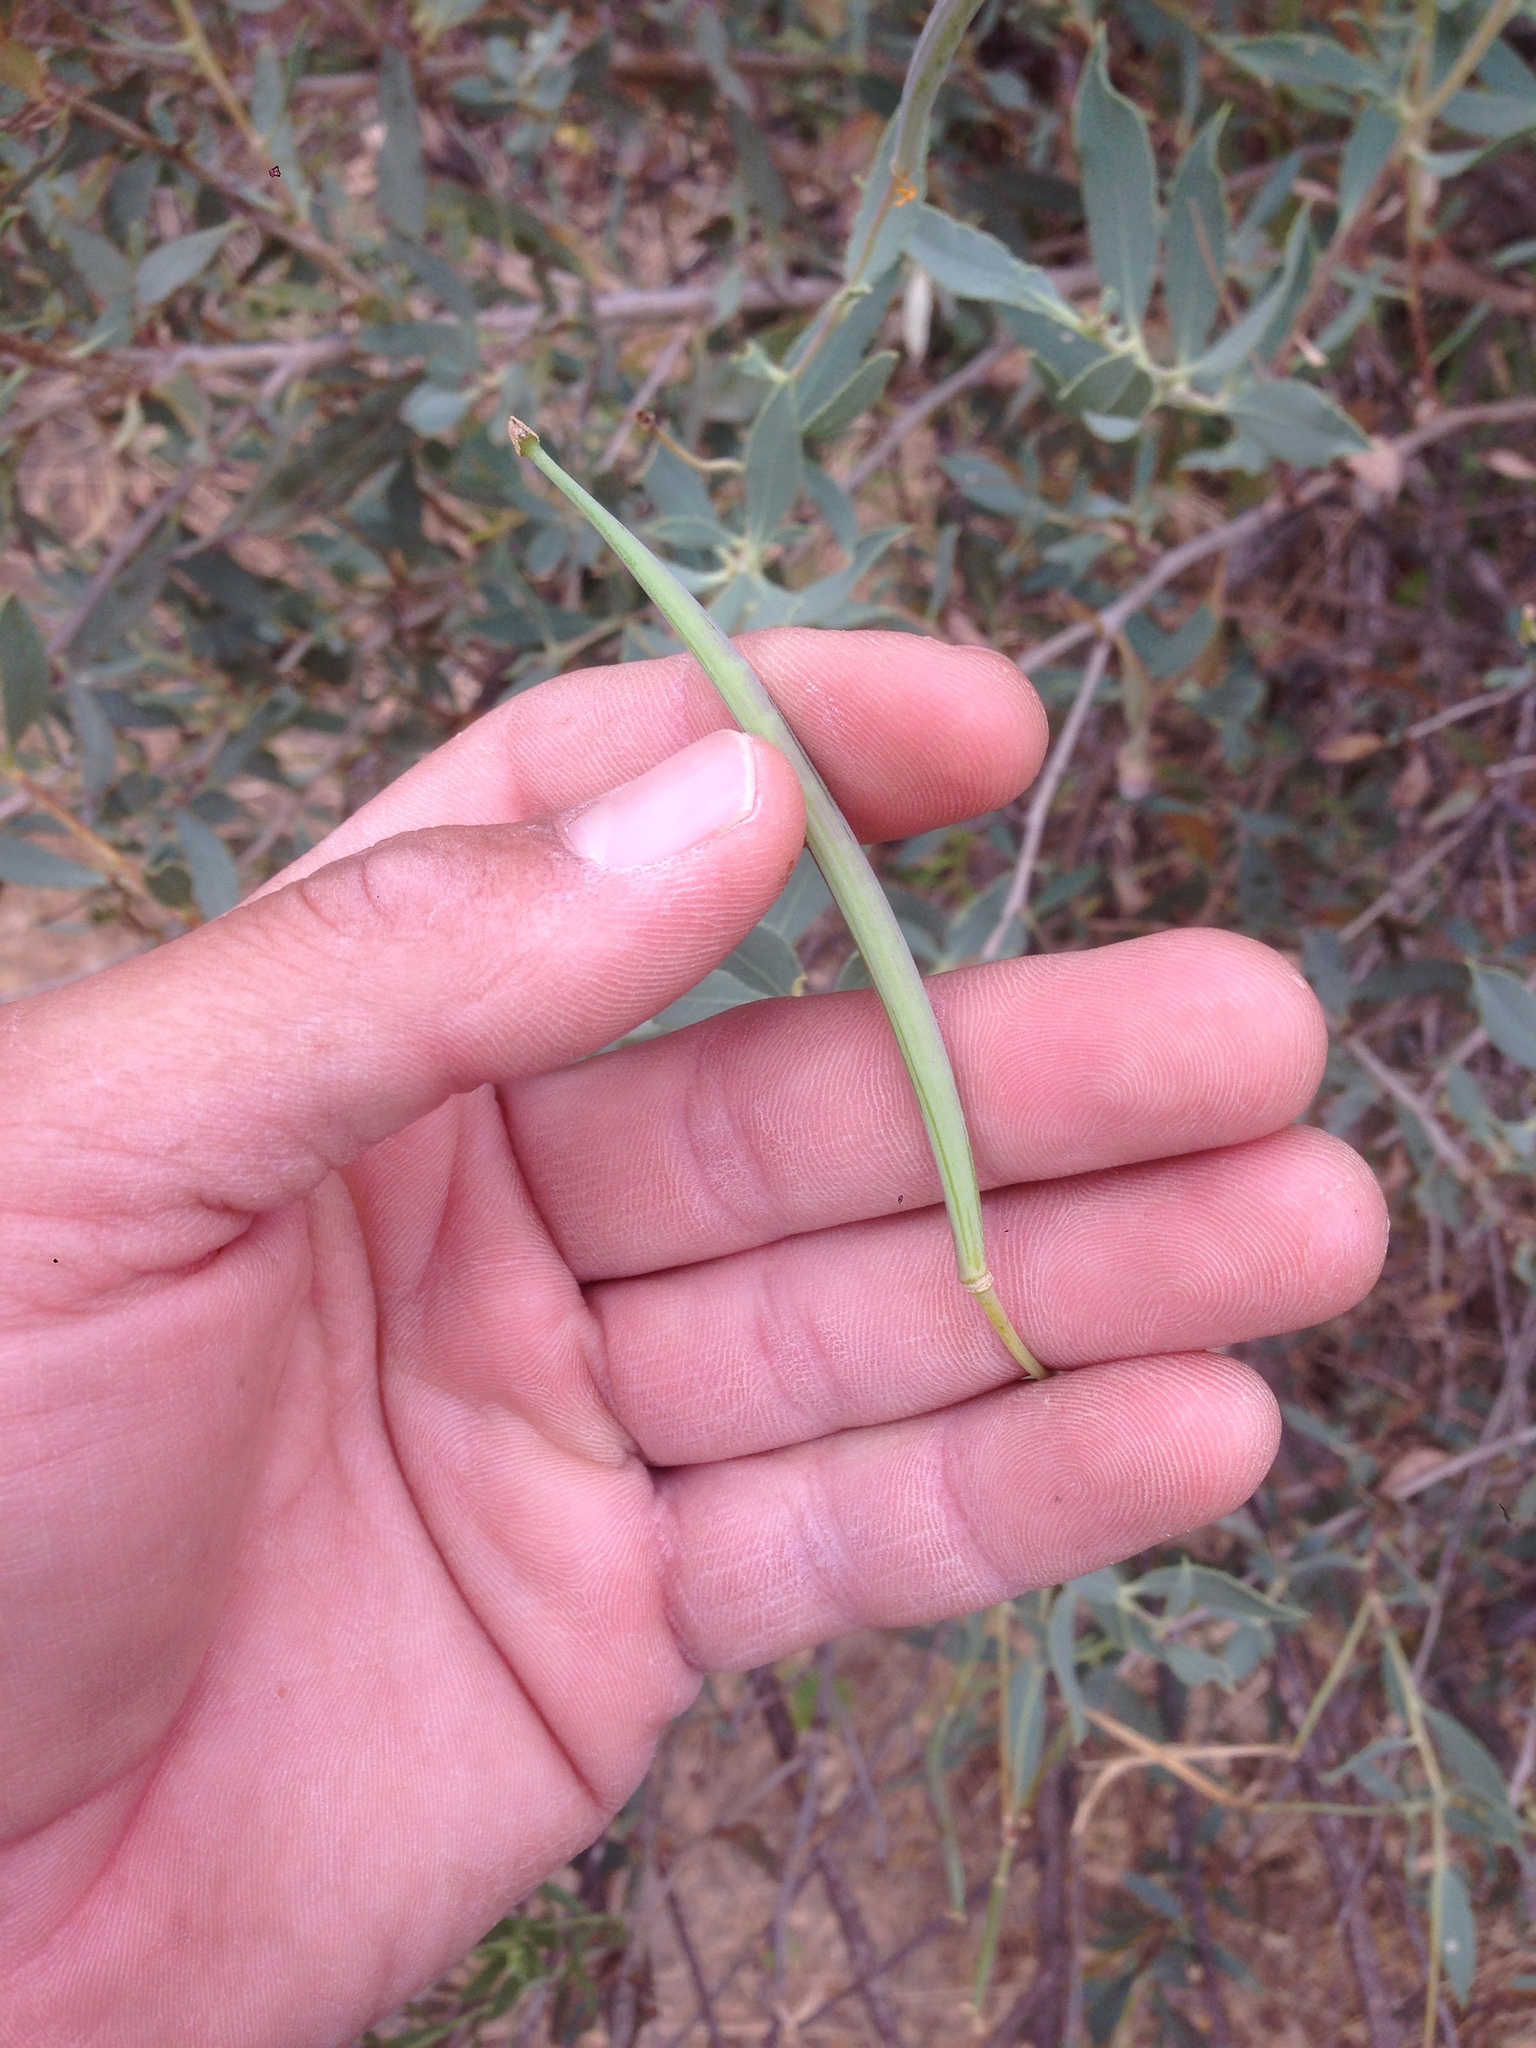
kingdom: Plantae
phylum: Tracheophyta
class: Magnoliopsida
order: Ranunculales
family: Papaveraceae
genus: Dendromecon
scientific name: Dendromecon rigida
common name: Tree poppy
